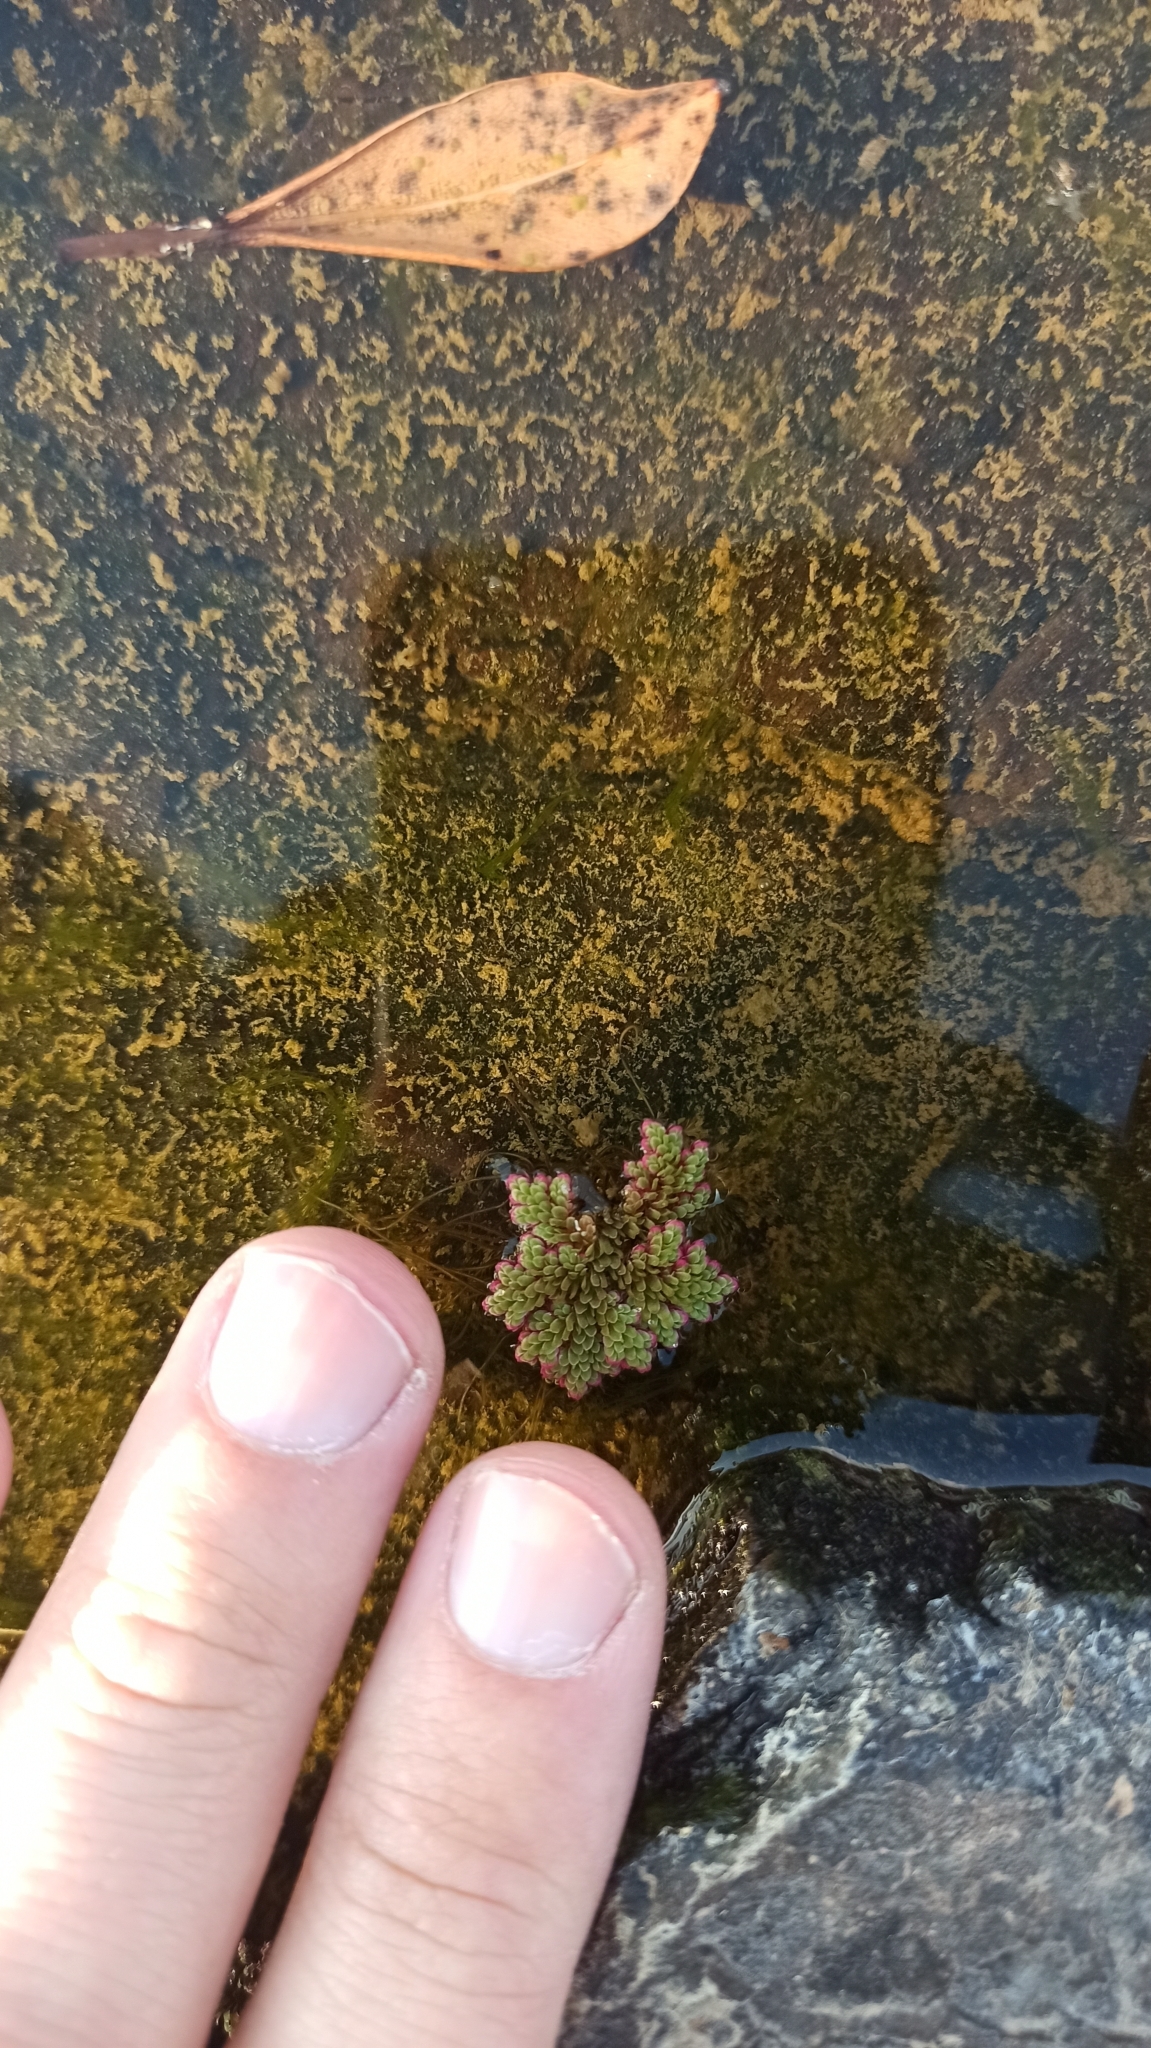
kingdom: Plantae
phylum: Tracheophyta
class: Polypodiopsida
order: Salviniales
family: Salviniaceae
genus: Azolla
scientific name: Azolla filiculoides
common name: Water fern
